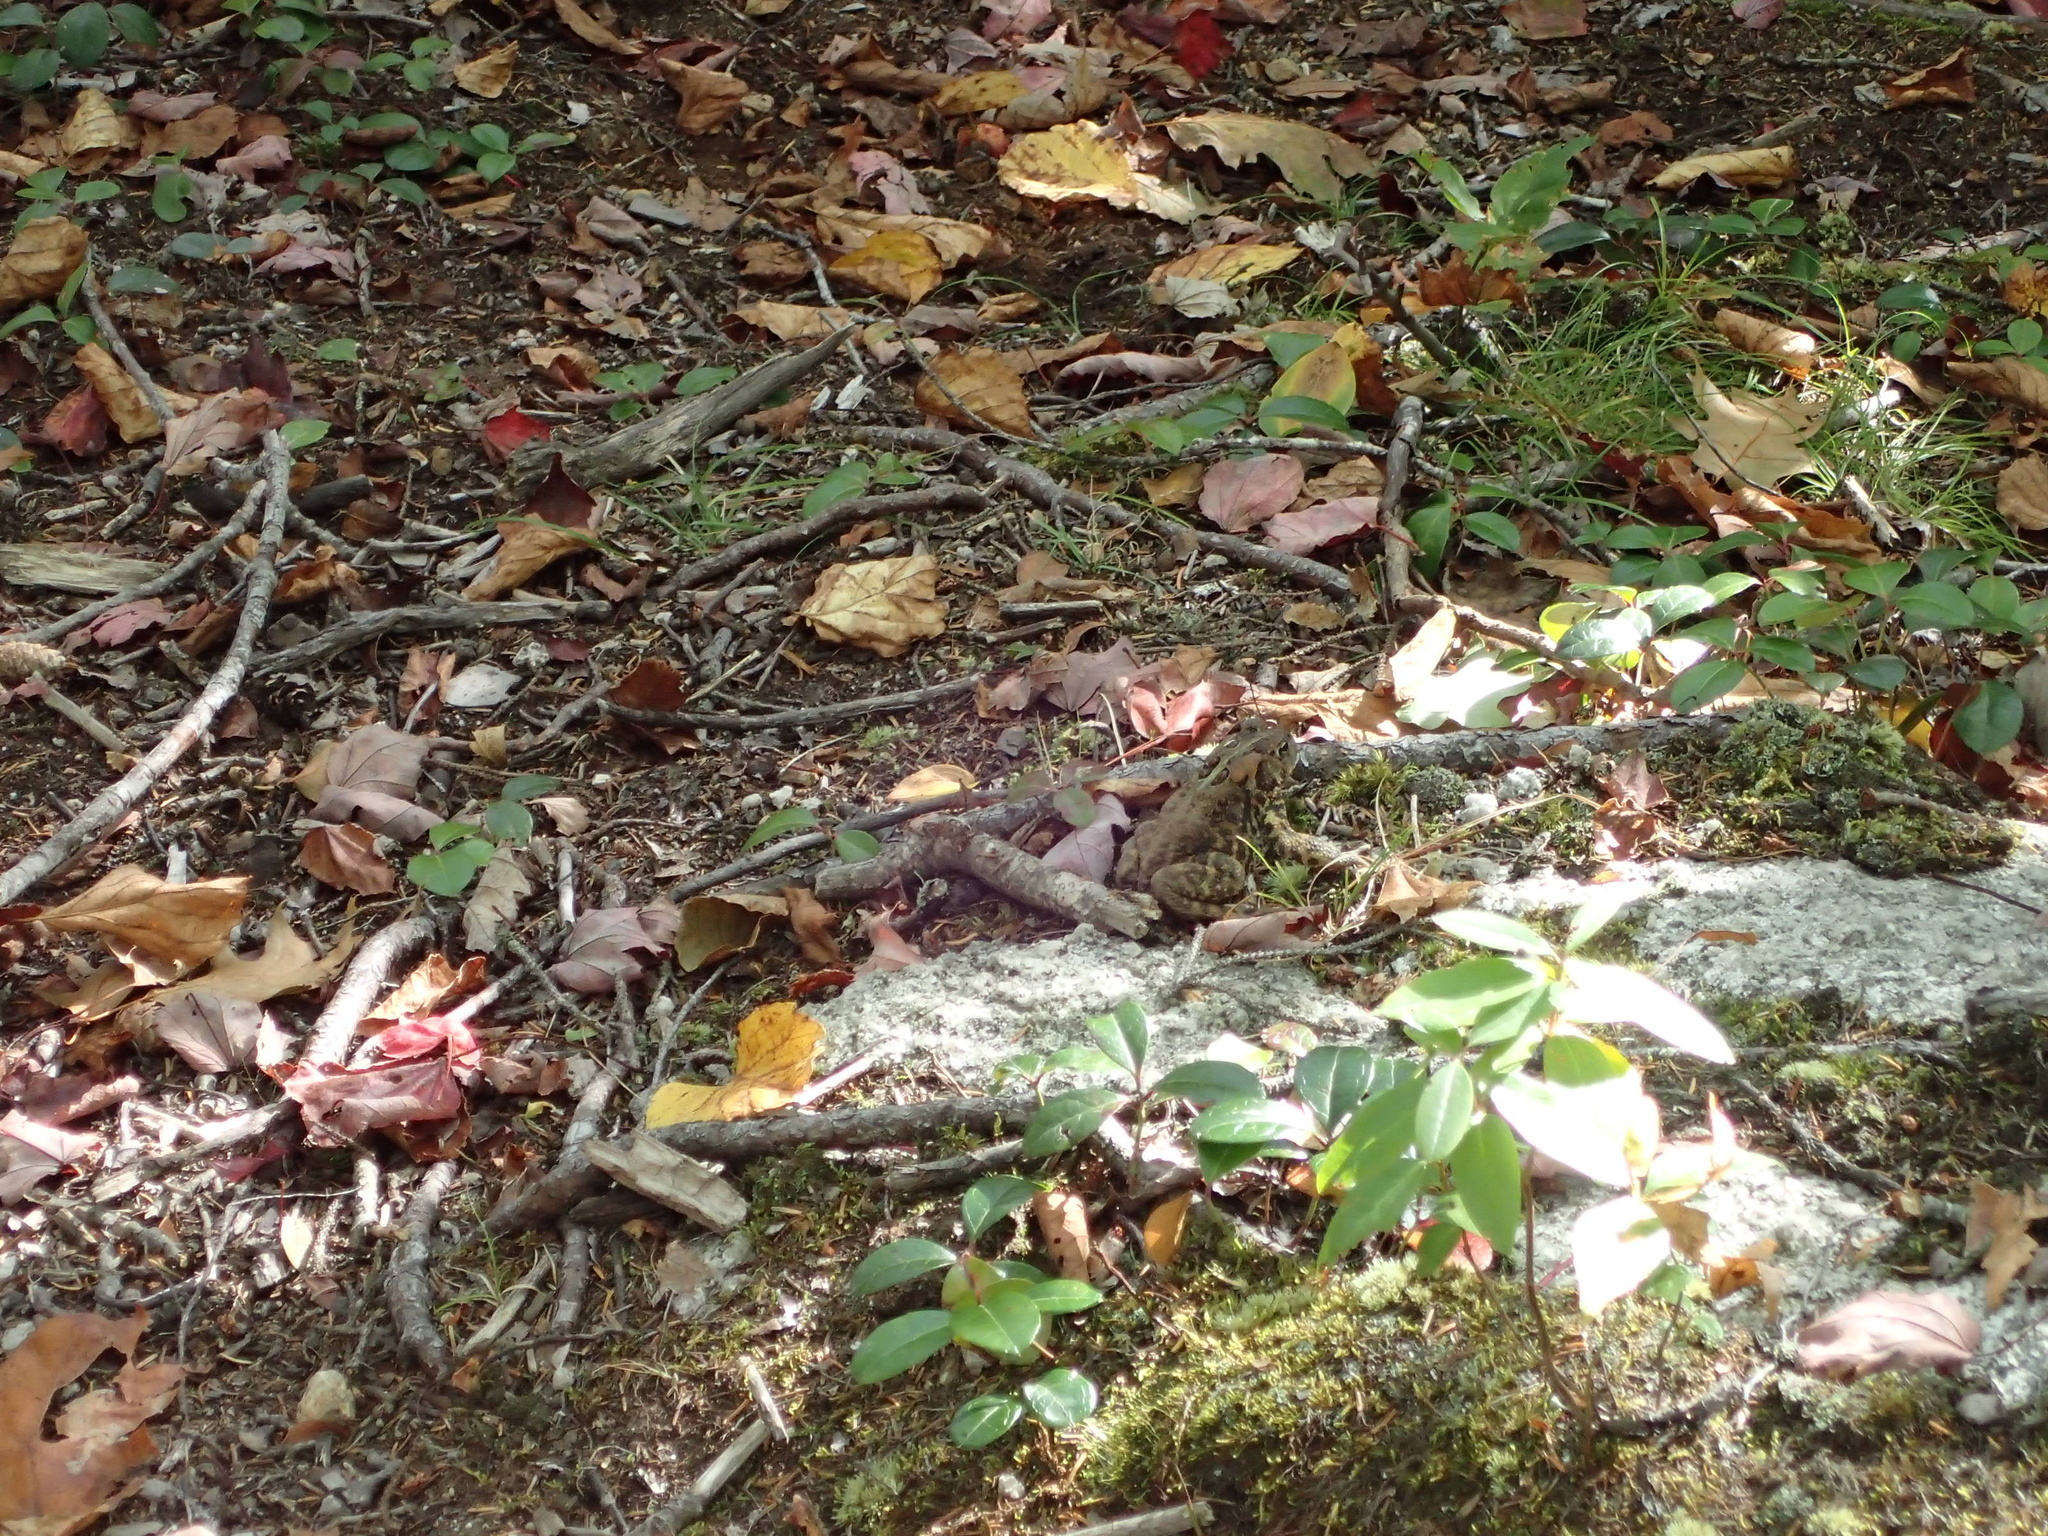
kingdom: Animalia
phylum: Chordata
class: Amphibia
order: Anura
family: Bufonidae
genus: Anaxyrus
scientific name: Anaxyrus americanus
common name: American toad
